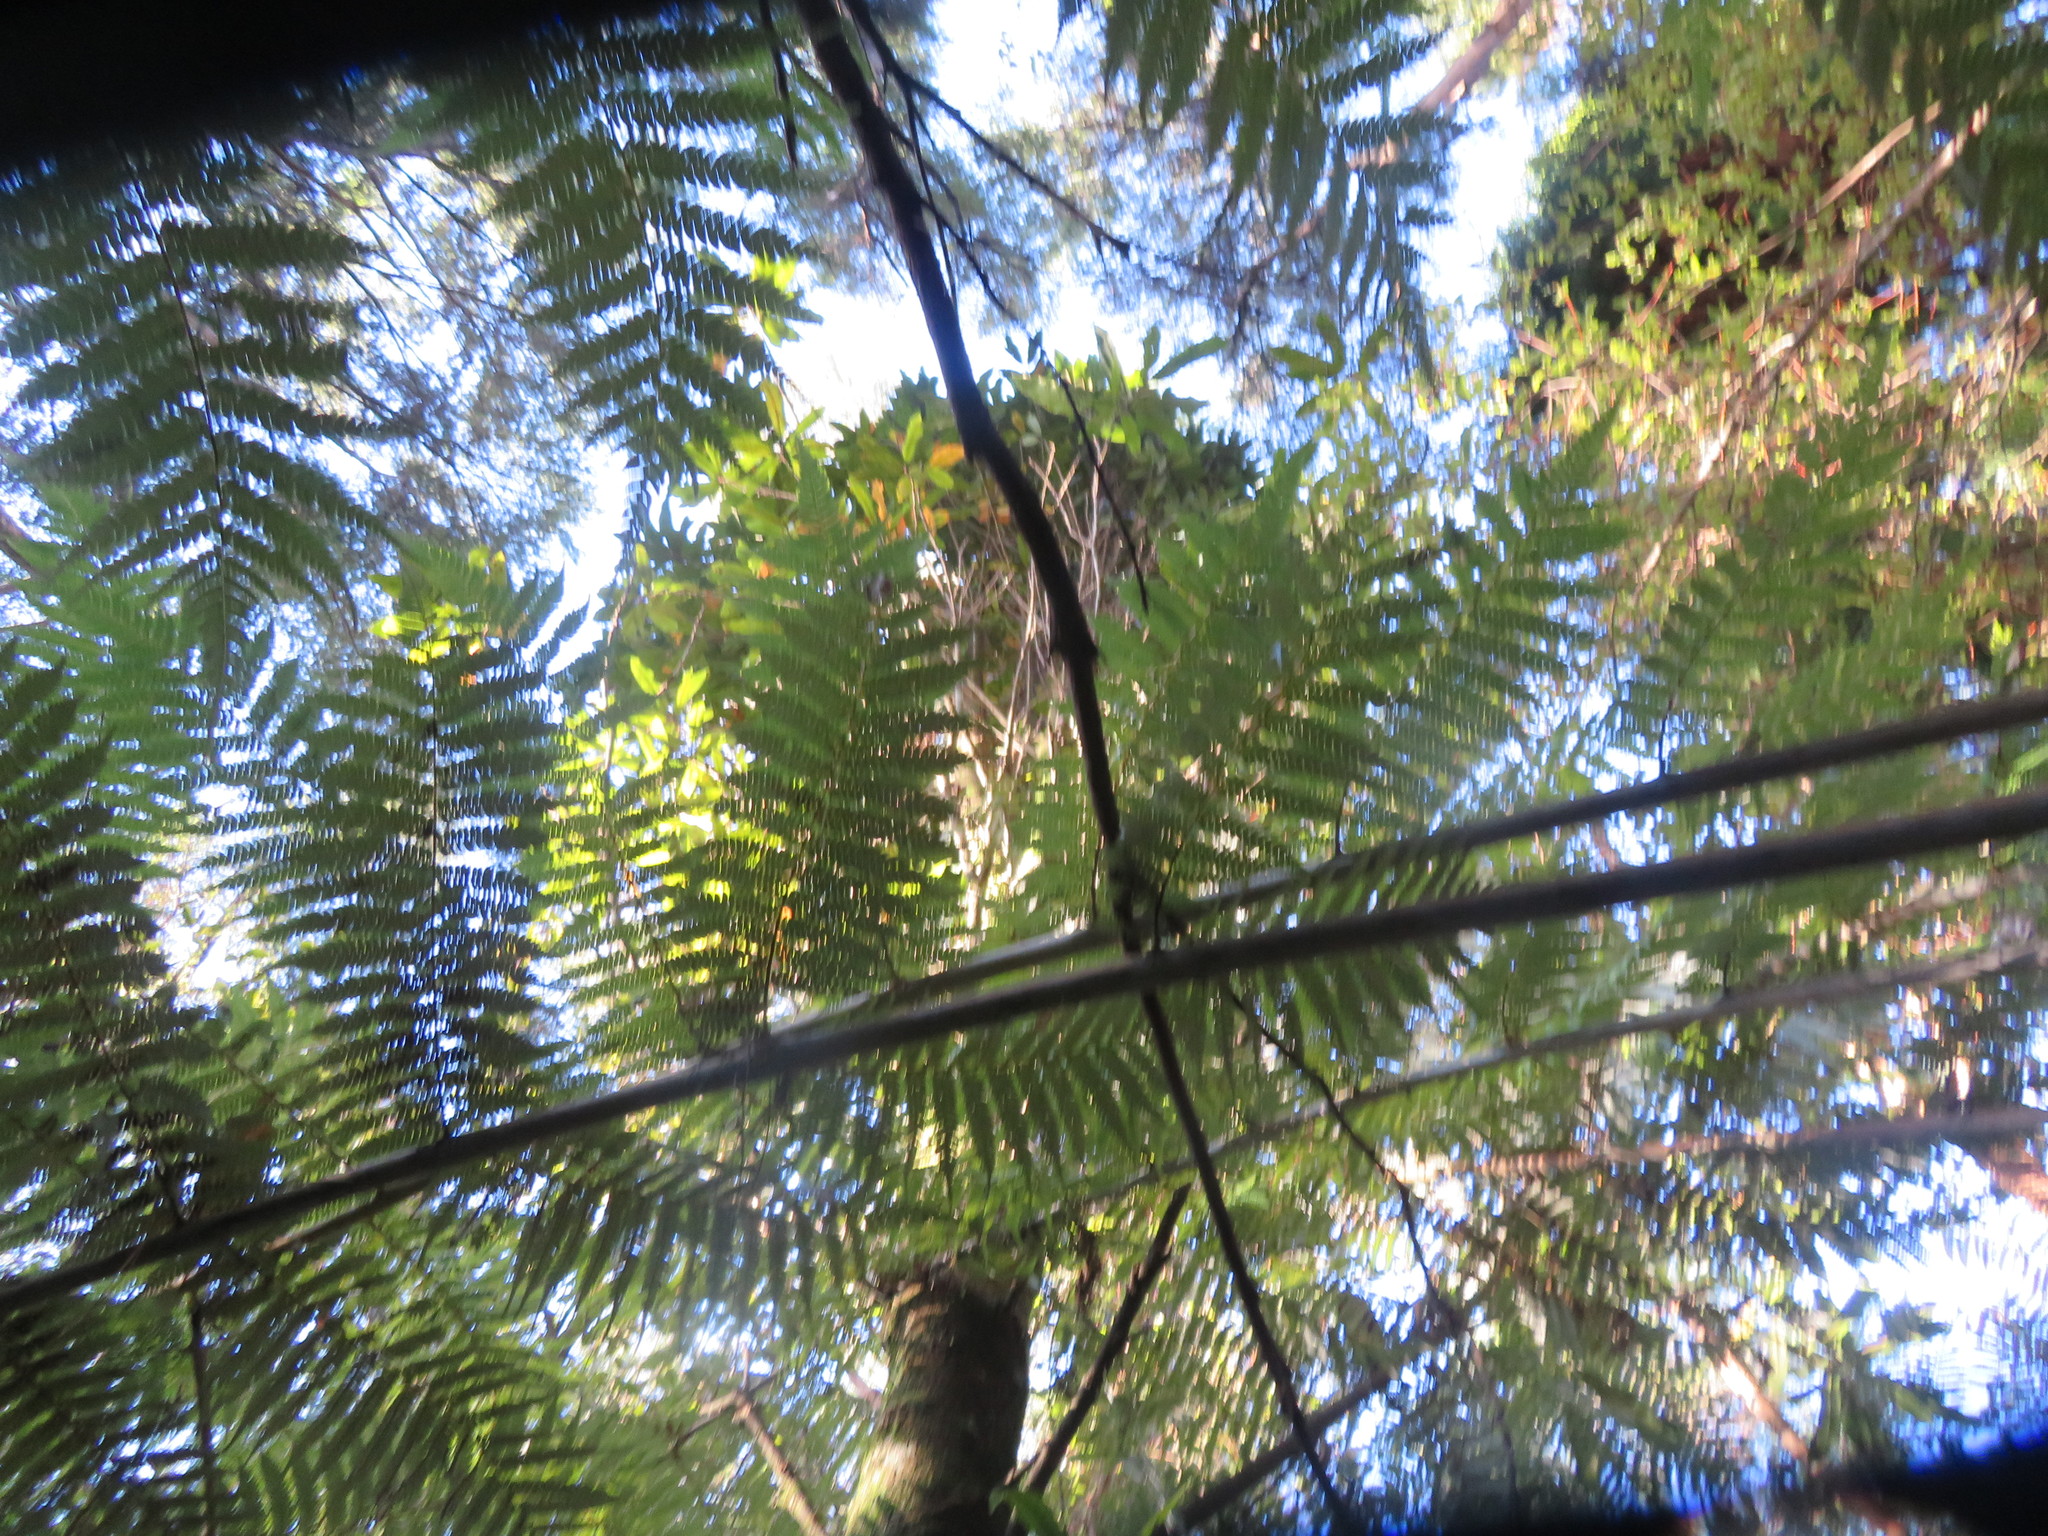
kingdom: Plantae
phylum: Tracheophyta
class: Pinopsida
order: Pinales
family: Podocarpaceae
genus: Dacrydium
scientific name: Dacrydium cupressinum
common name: Red pine
